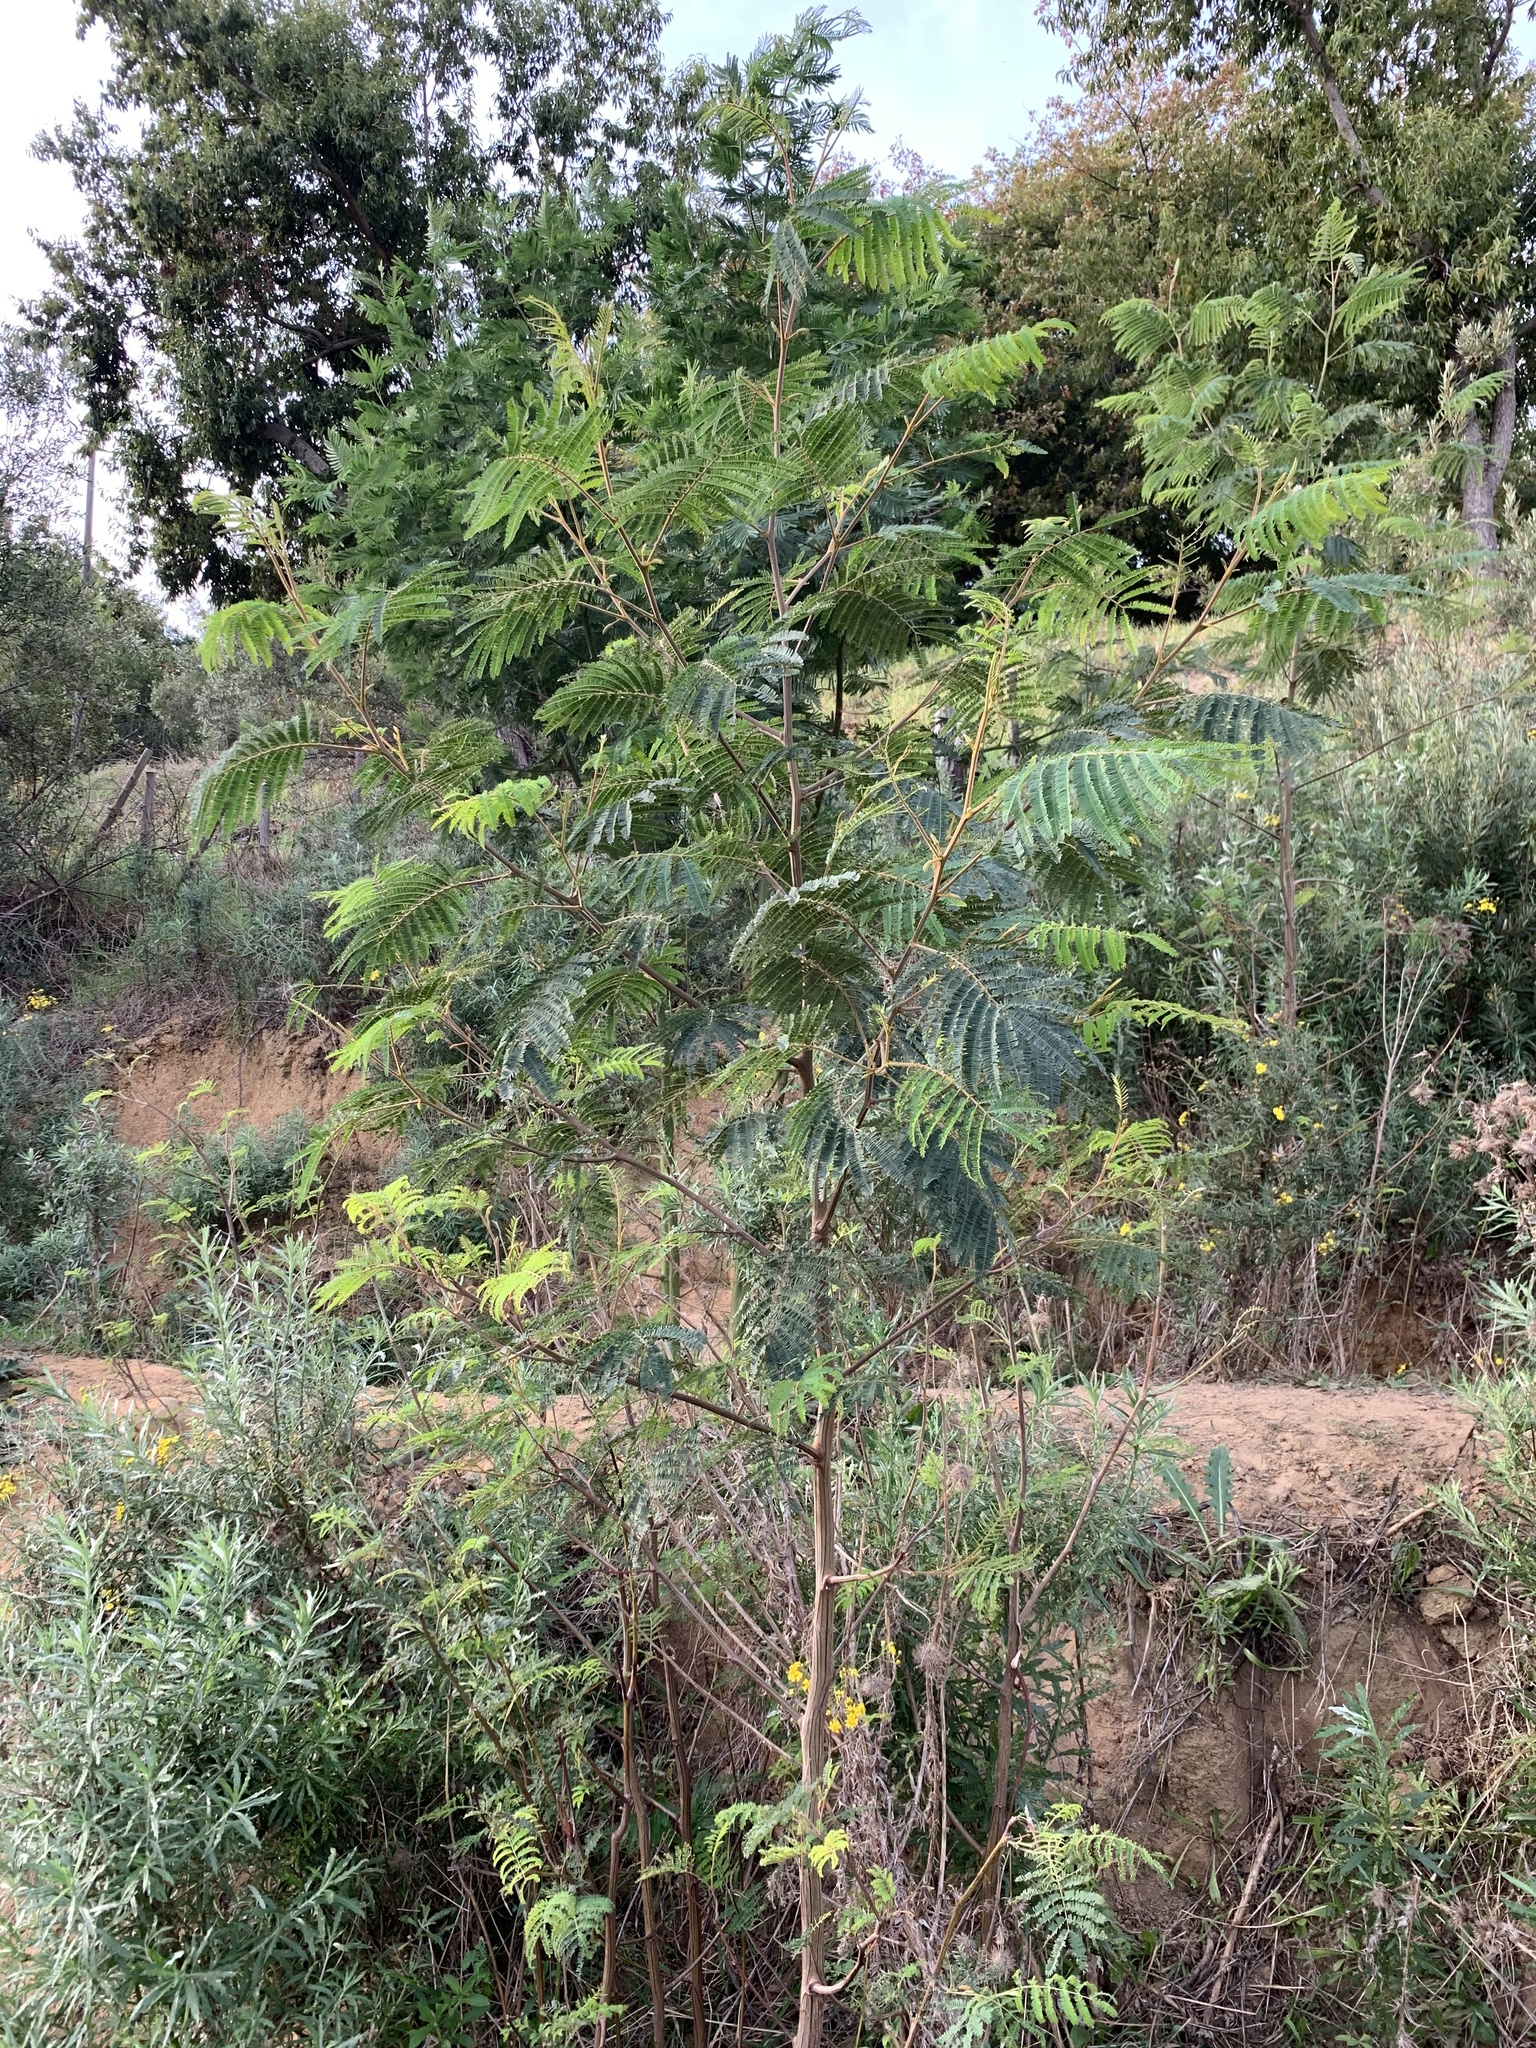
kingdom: Plantae
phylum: Tracheophyta
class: Magnoliopsida
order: Fabales
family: Fabaceae
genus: Paraserianthes
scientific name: Paraserianthes lophantha
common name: Plume albizia
